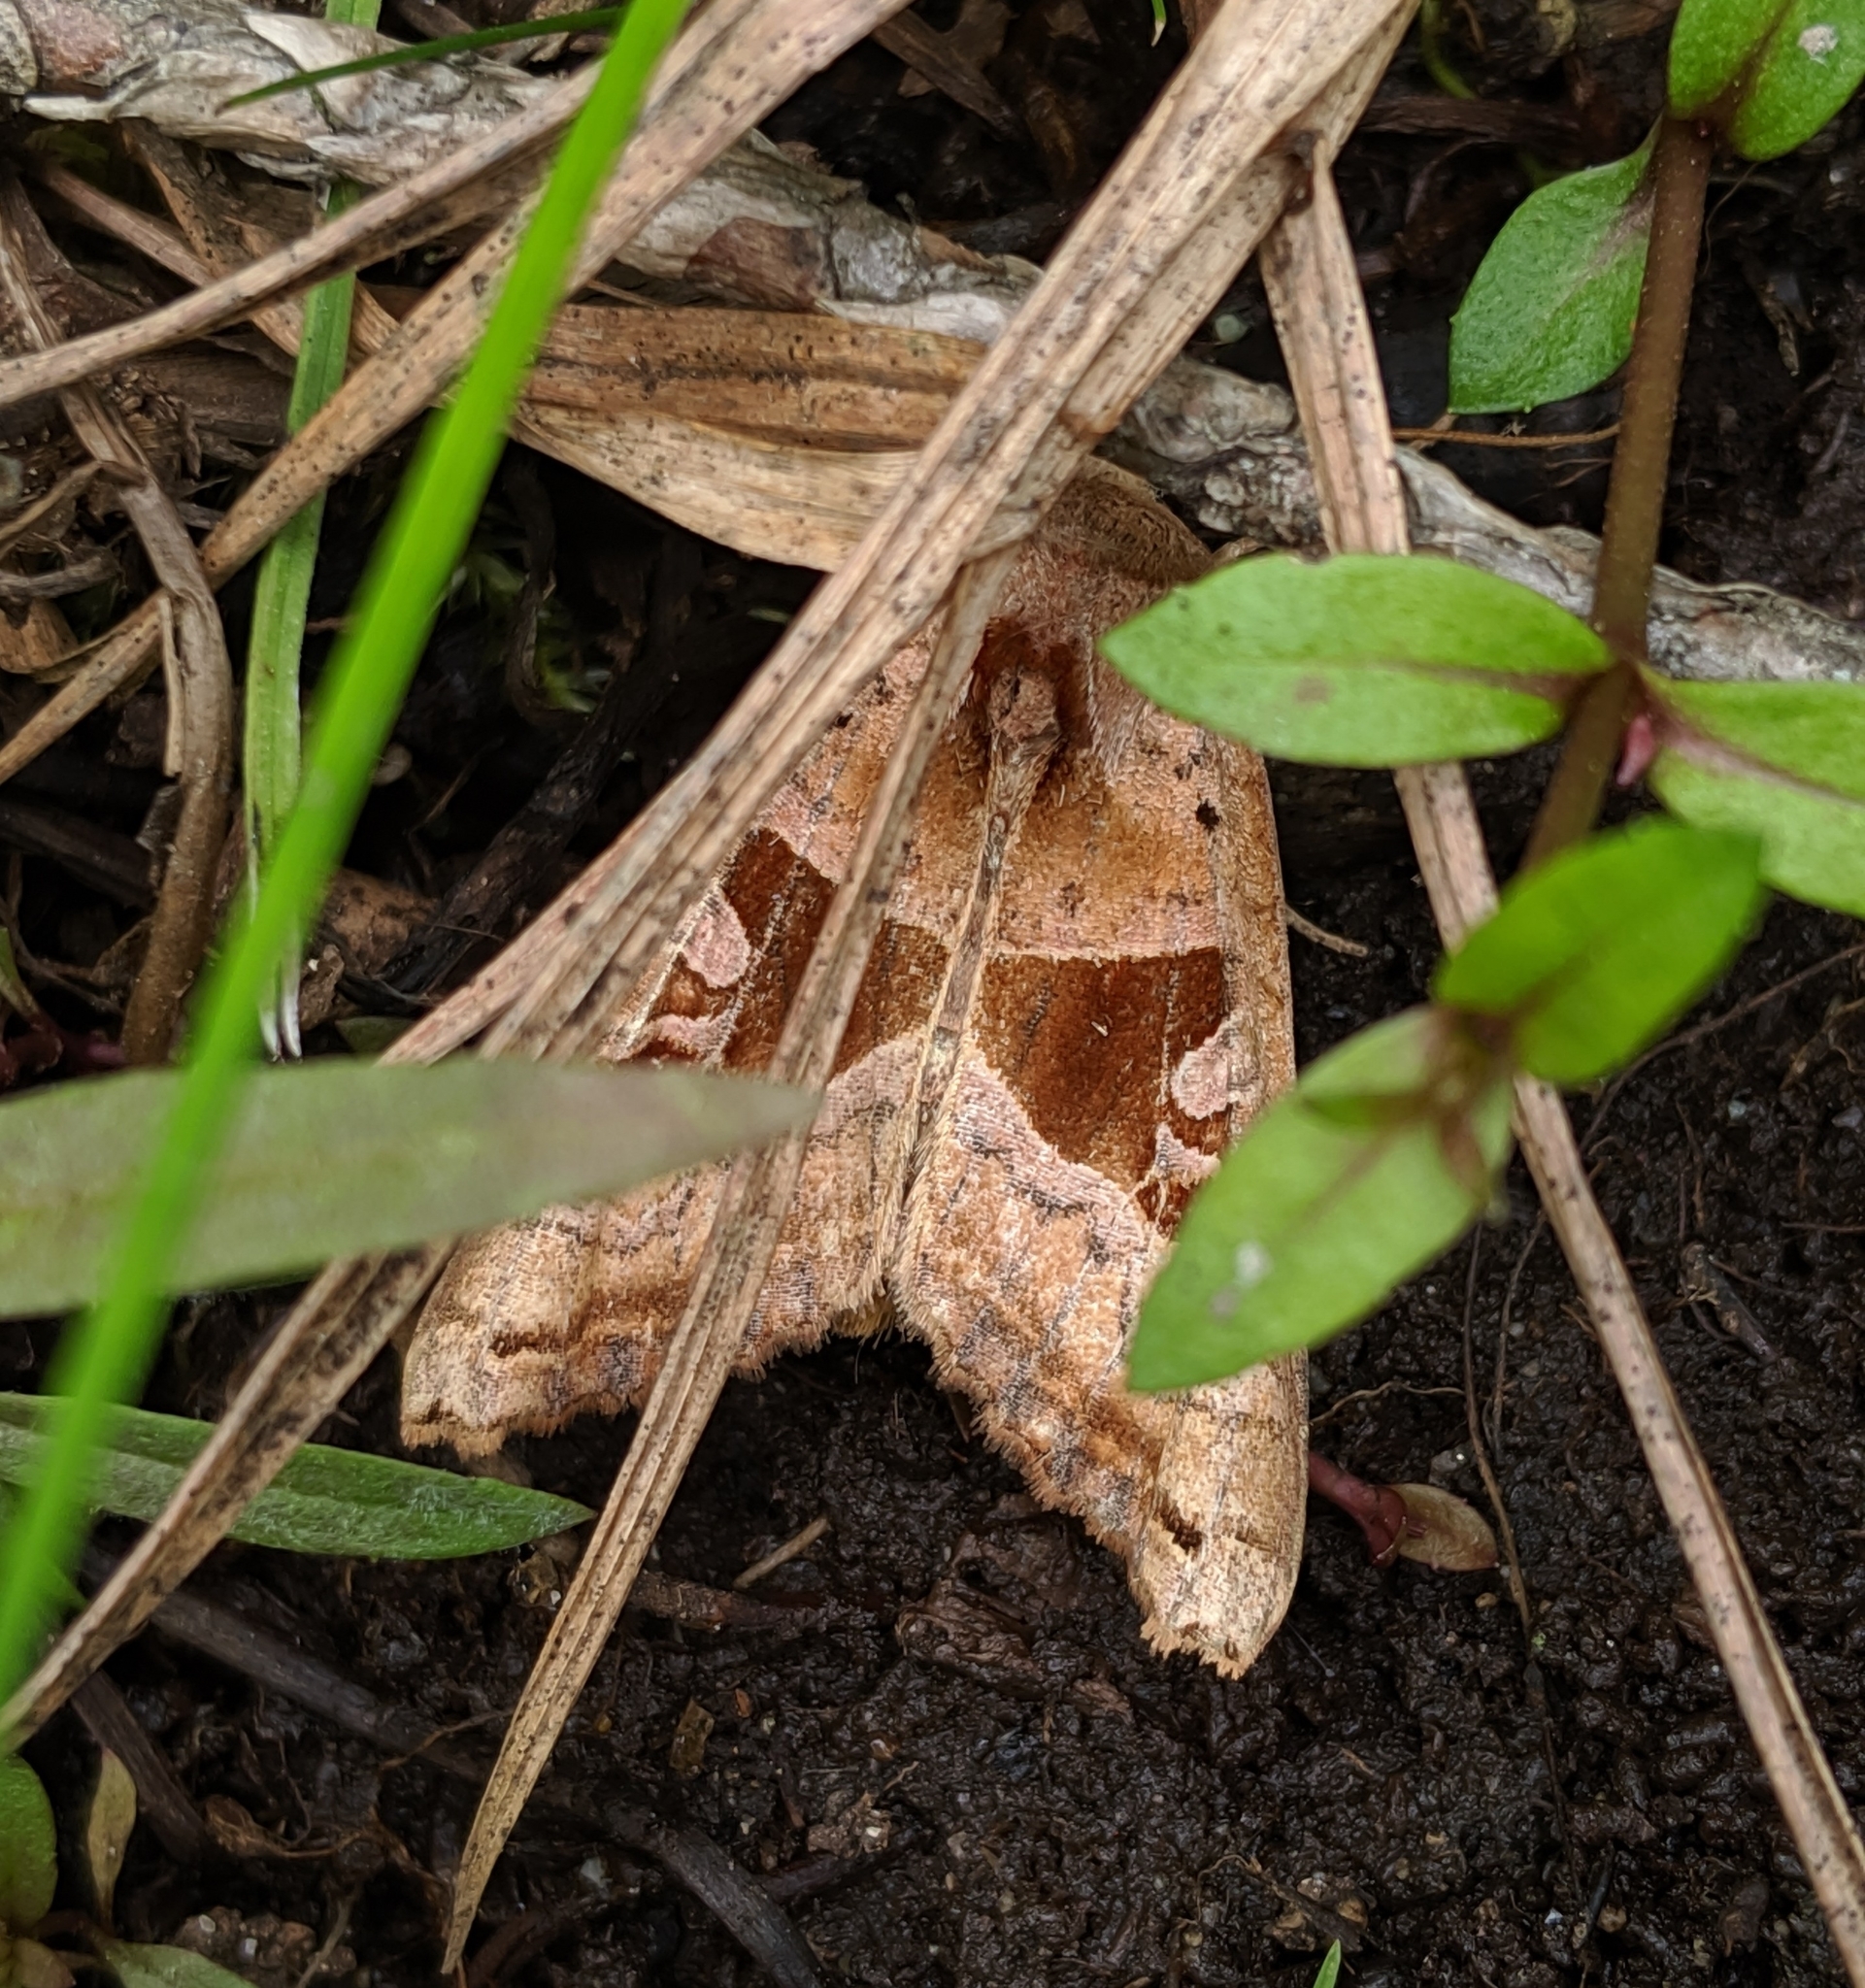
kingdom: Animalia
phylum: Arthropoda
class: Insecta
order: Lepidoptera
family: Noctuidae
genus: Phlogophora
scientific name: Phlogophora periculosa
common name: Brown angle shades
